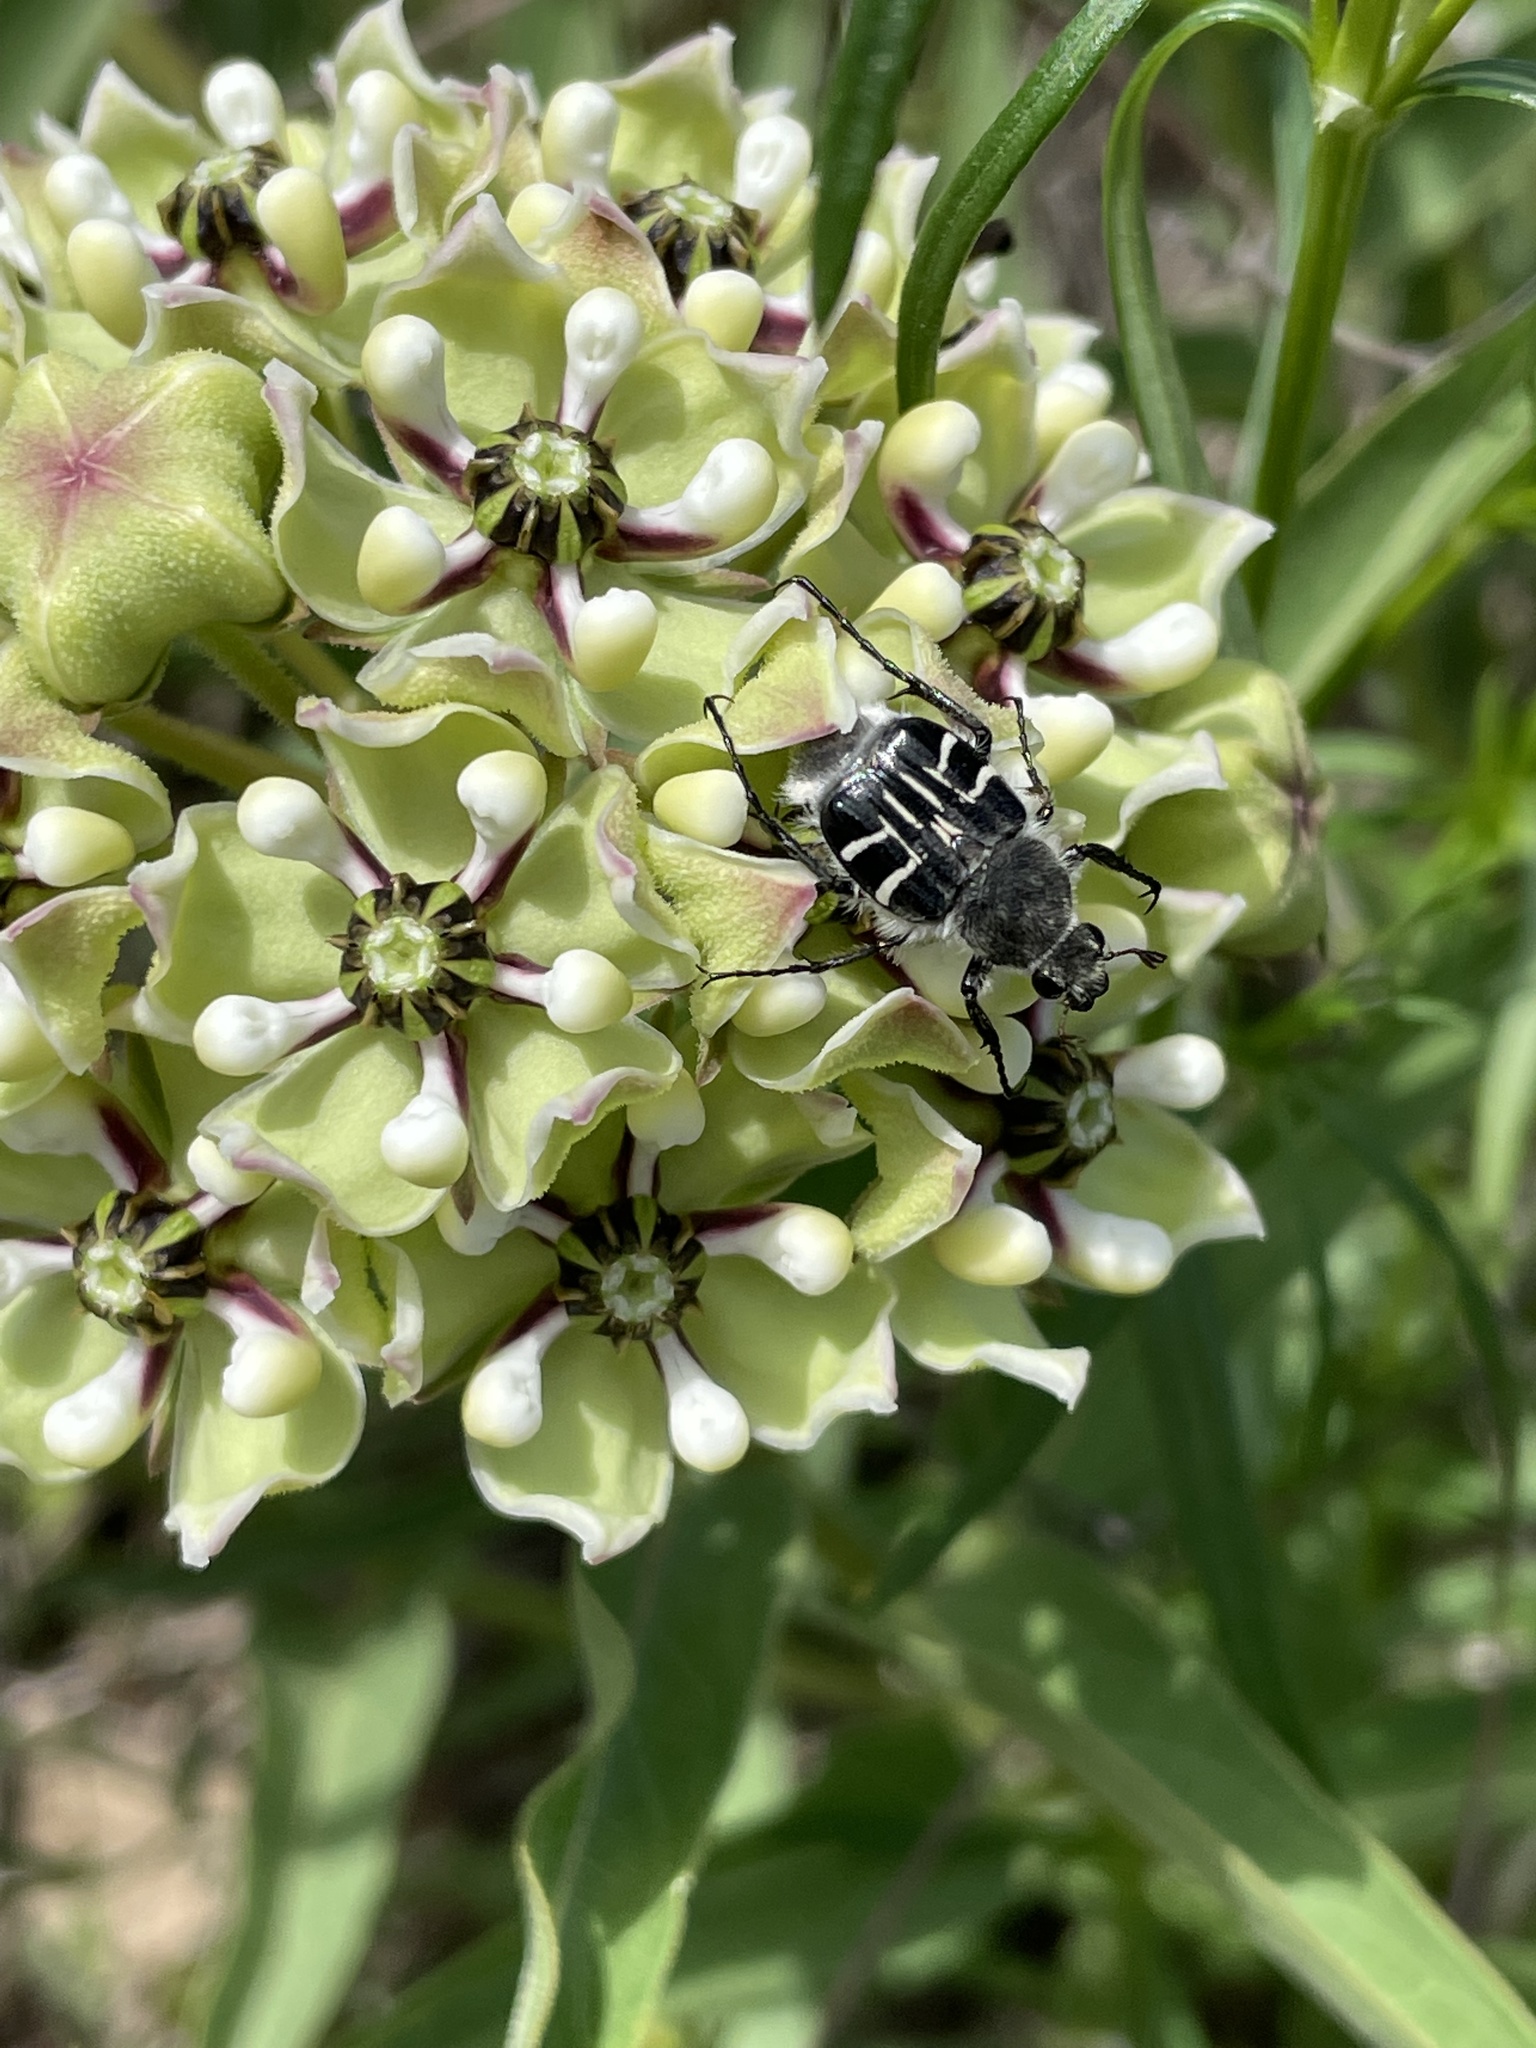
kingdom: Animalia
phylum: Arthropoda
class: Insecta
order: Coleoptera
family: Scarabaeidae
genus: Trichiotinus
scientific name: Trichiotinus texanus
